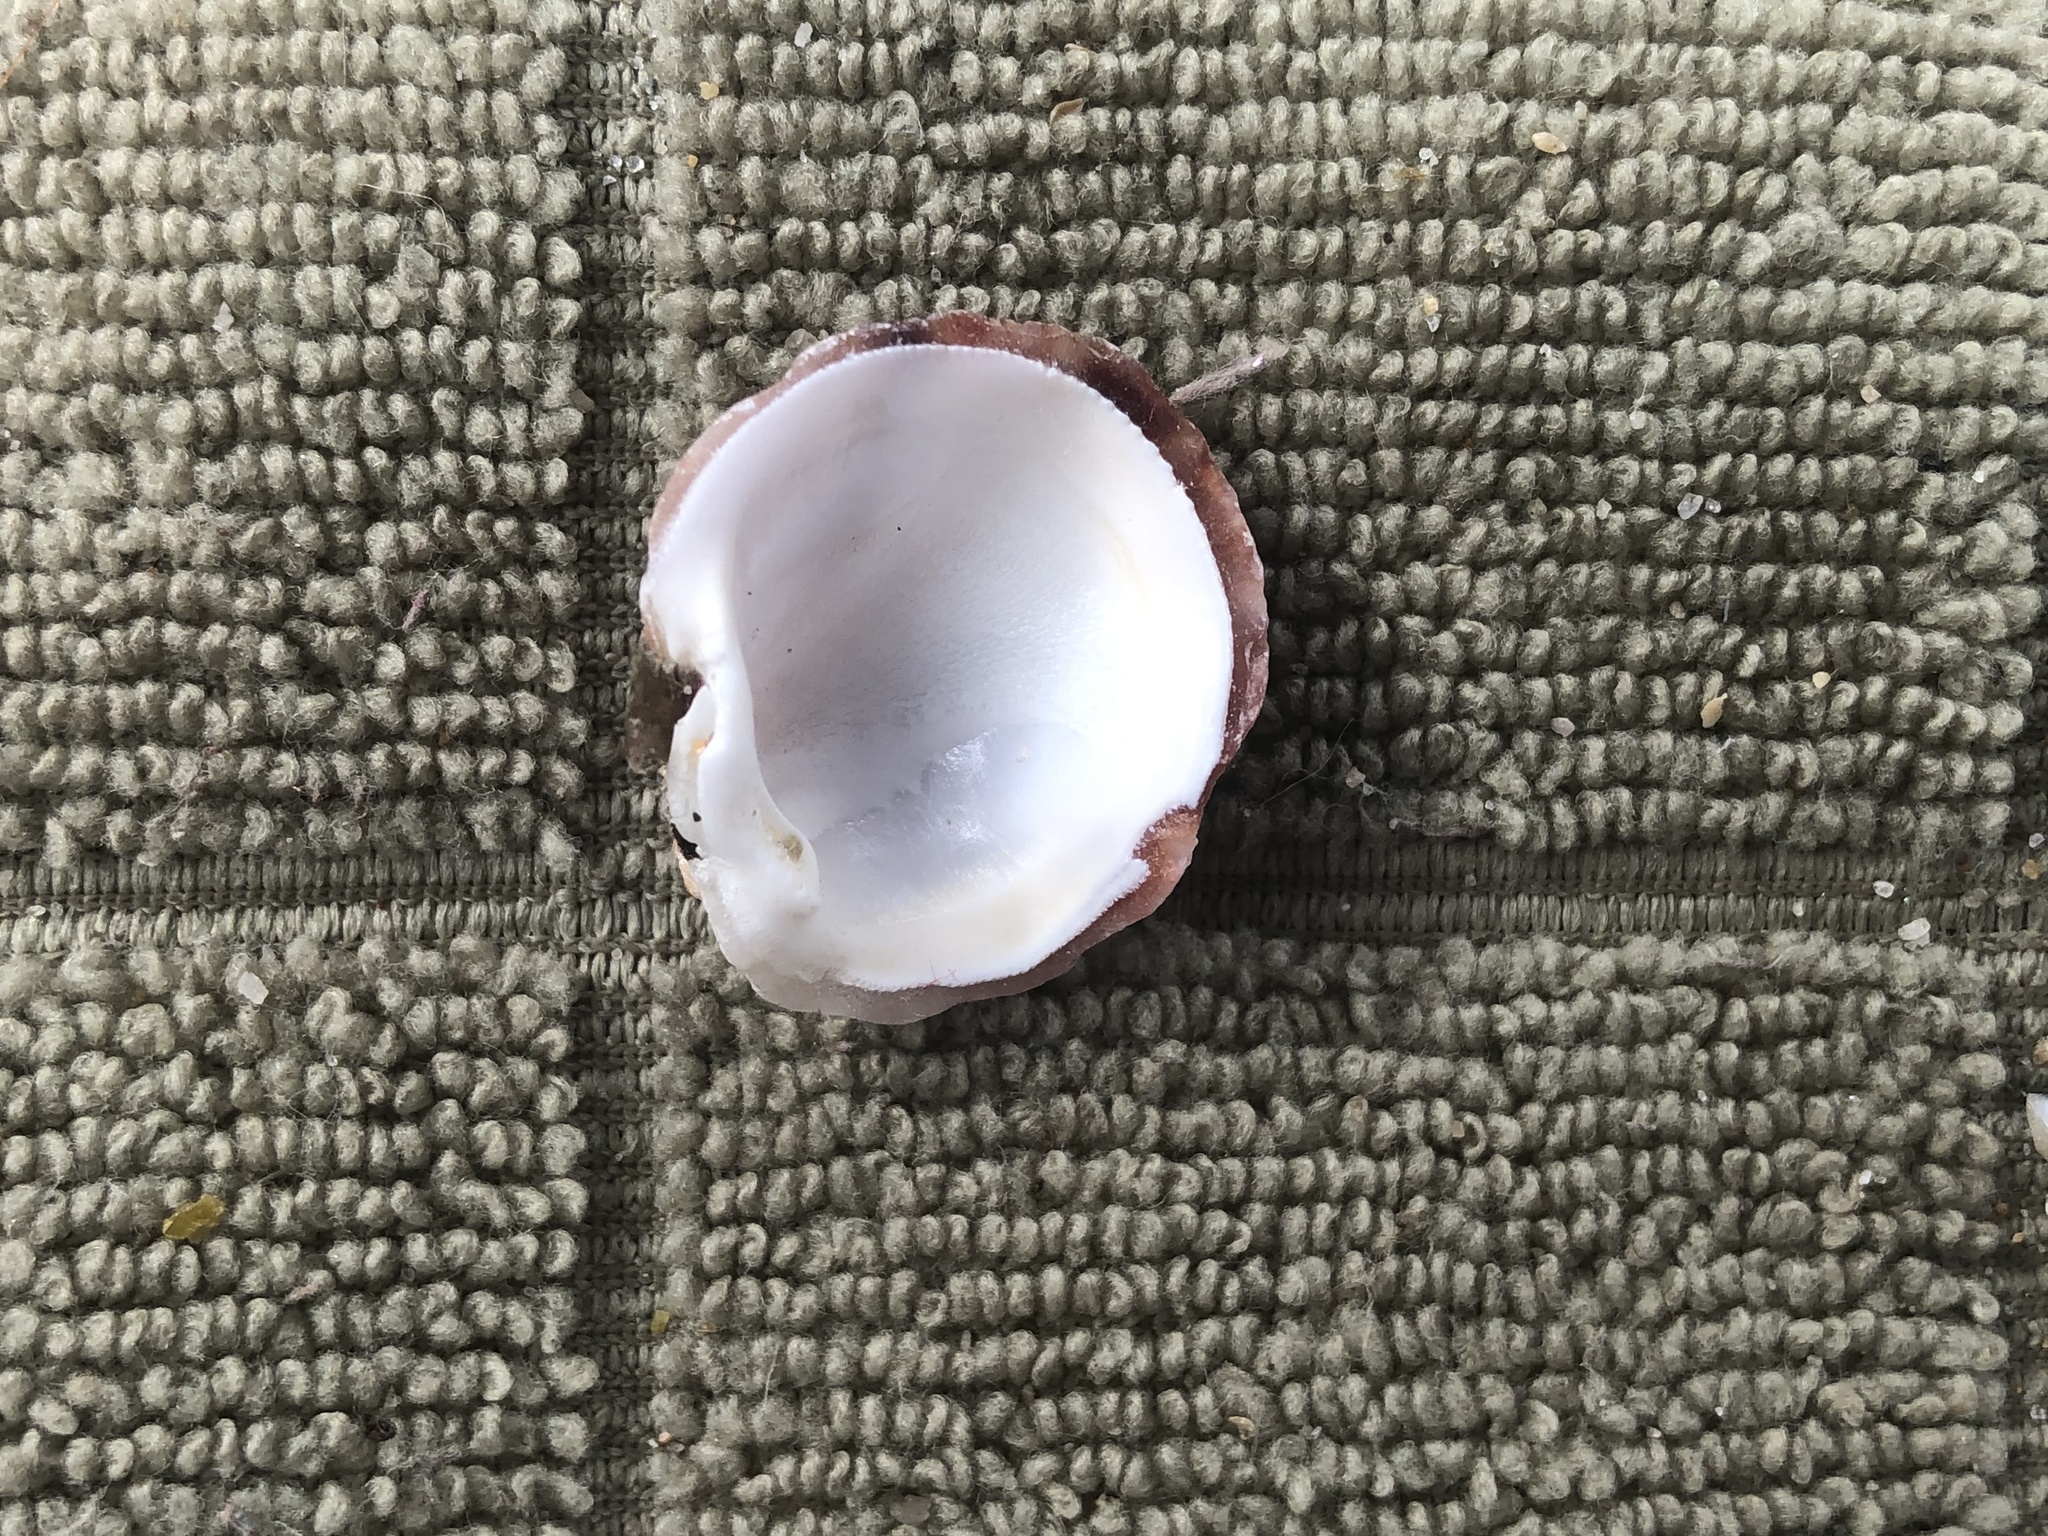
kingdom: Animalia
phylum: Mollusca
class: Bivalvia
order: Venerida
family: Chamidae
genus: Chama
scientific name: Chama arcana
